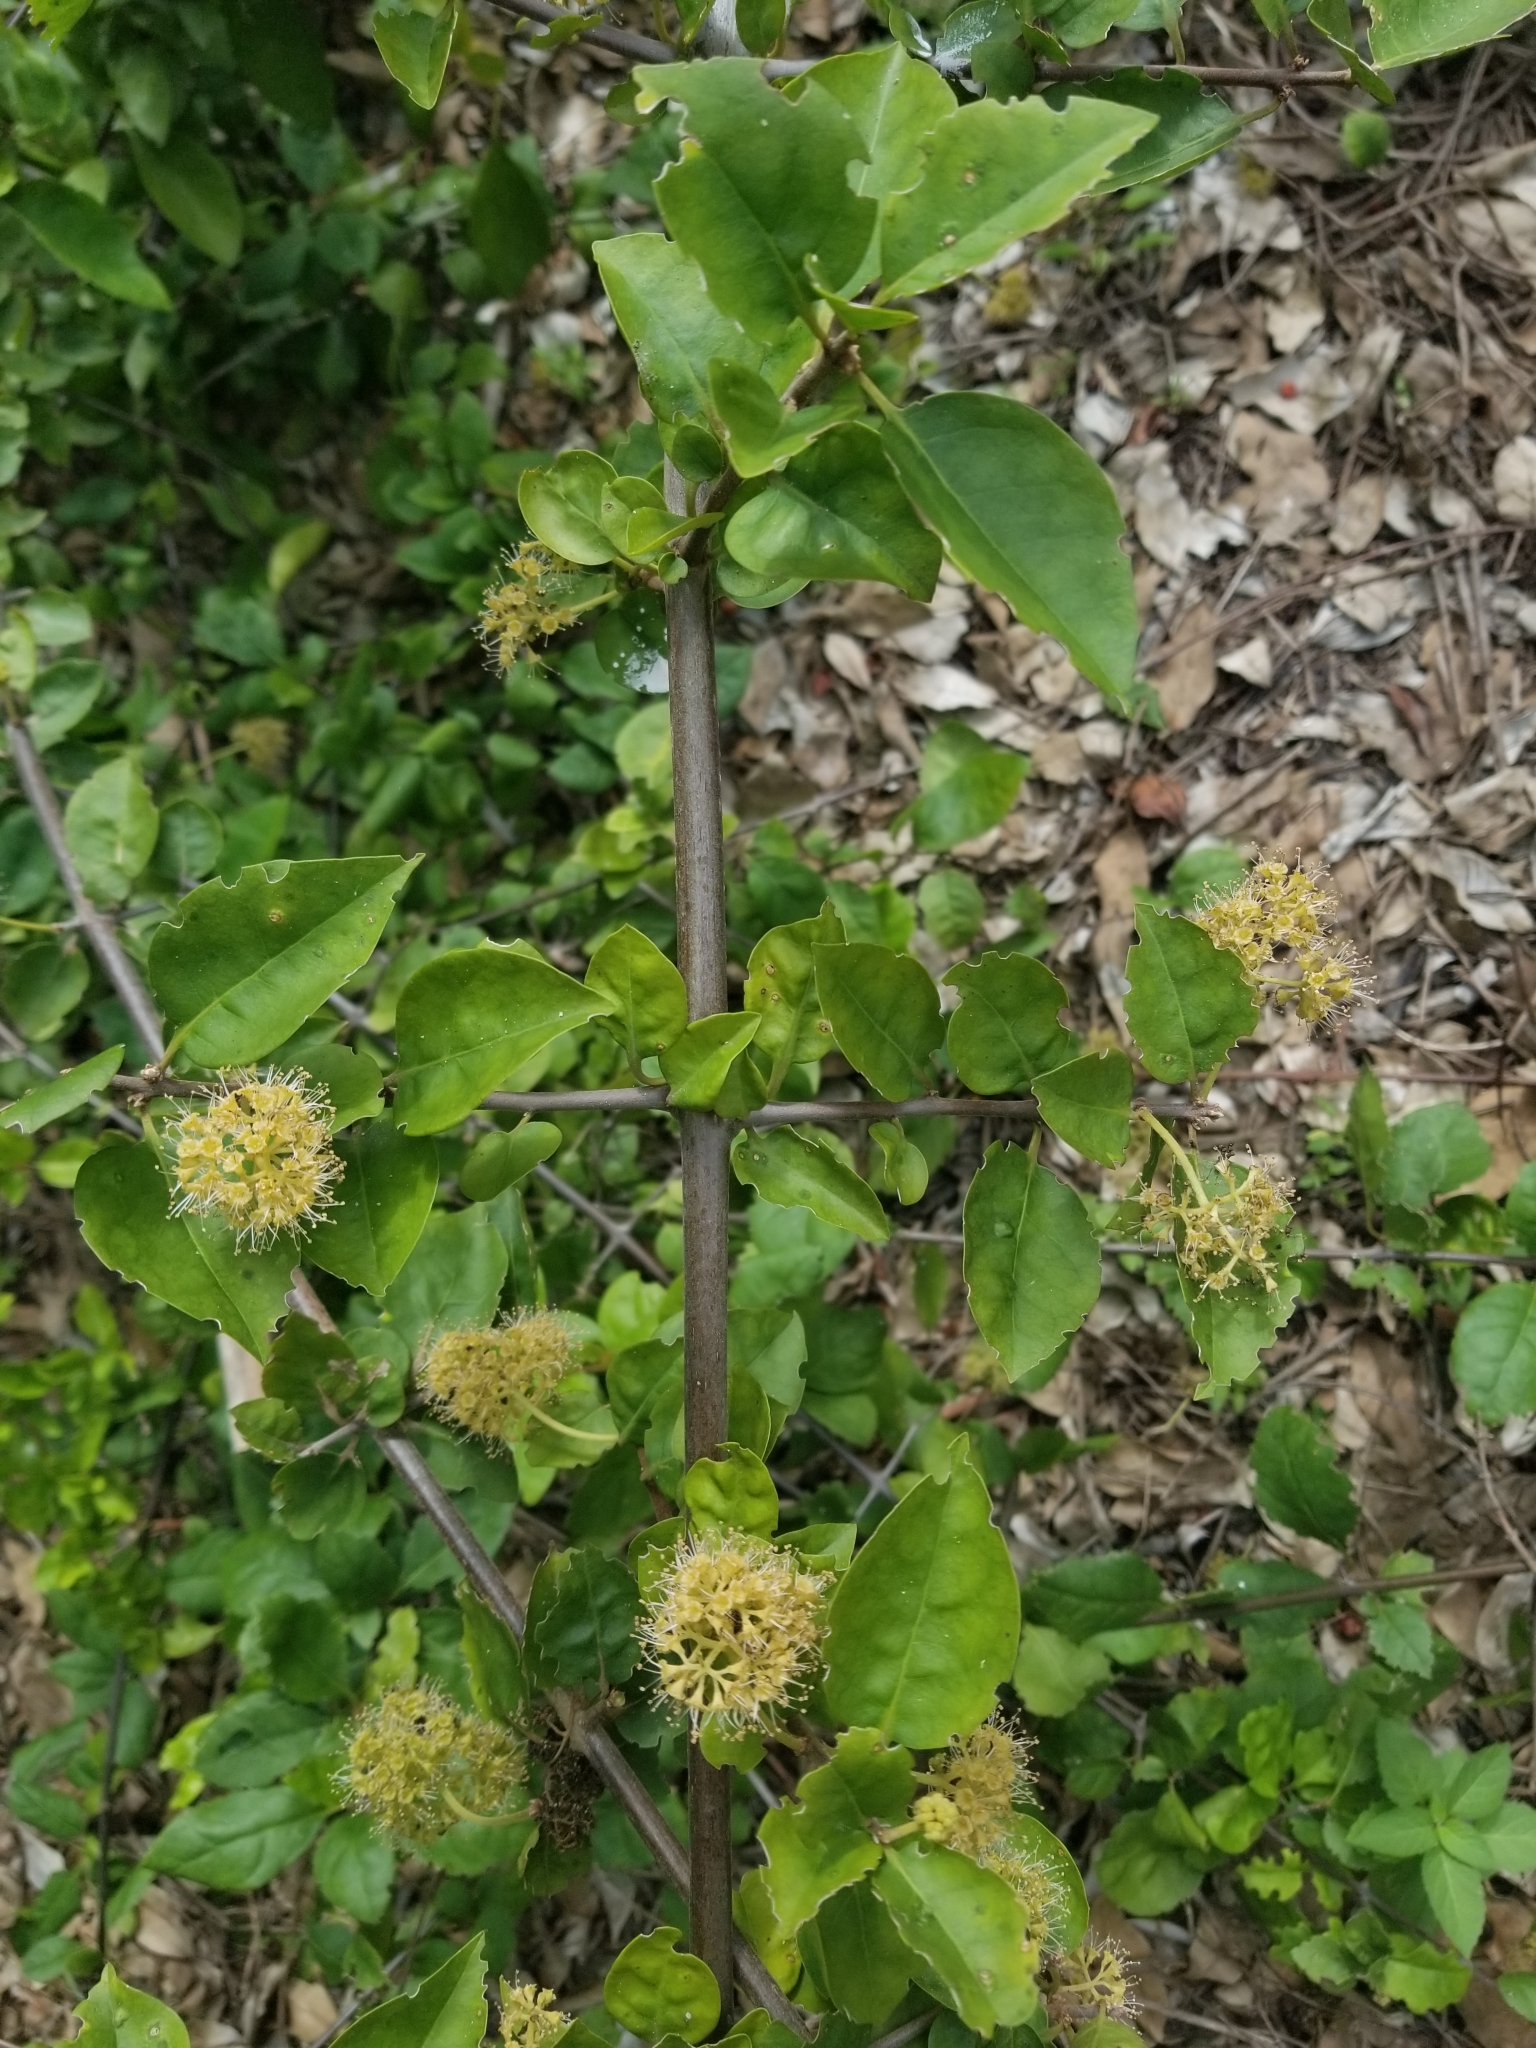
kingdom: Plantae
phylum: Tracheophyta
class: Magnoliopsida
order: Caryophyllales
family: Nyctaginaceae
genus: Pisonia
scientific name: Pisonia aculeata
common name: Cockspur vine
